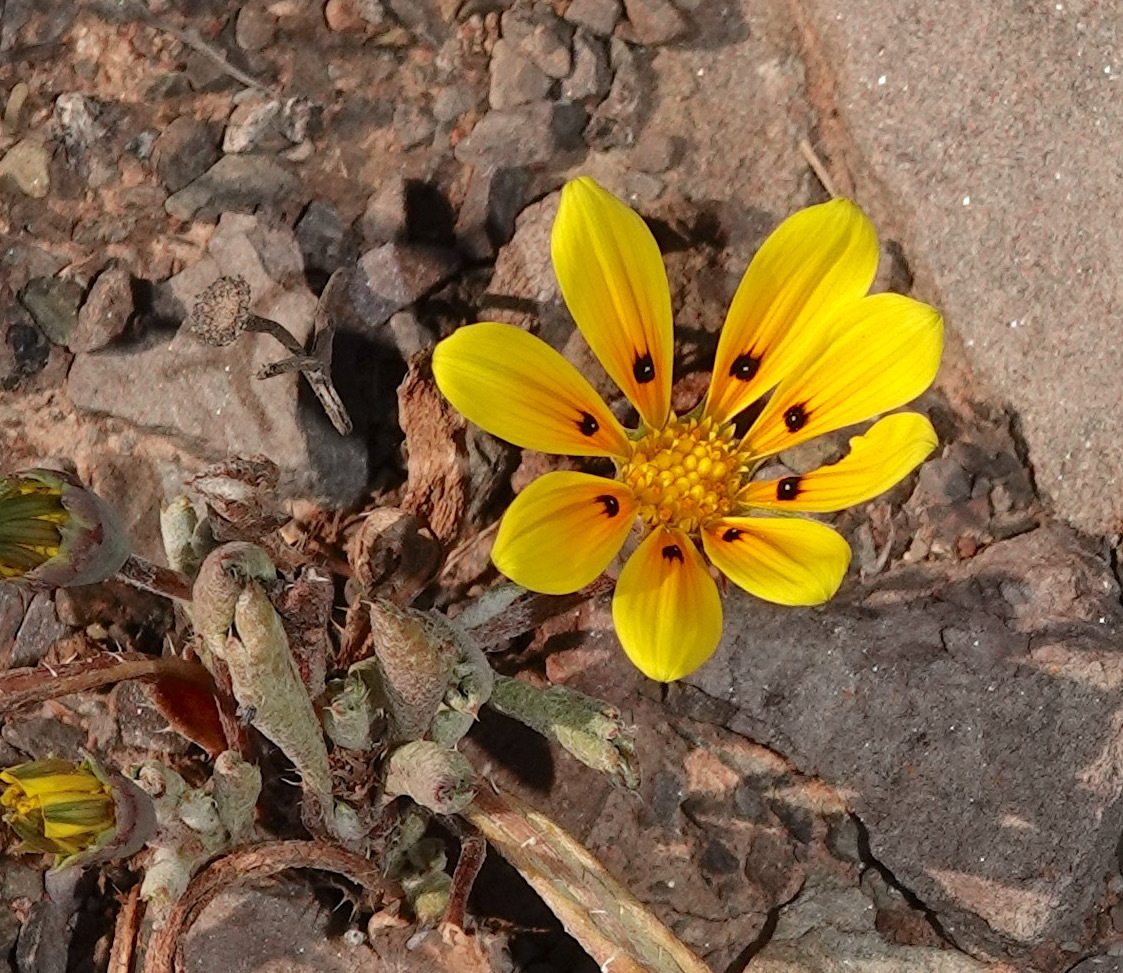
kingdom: Plantae
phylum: Tracheophyta
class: Magnoliopsida
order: Asterales
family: Asteraceae
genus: Gazania
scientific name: Gazania lichtensteinii
